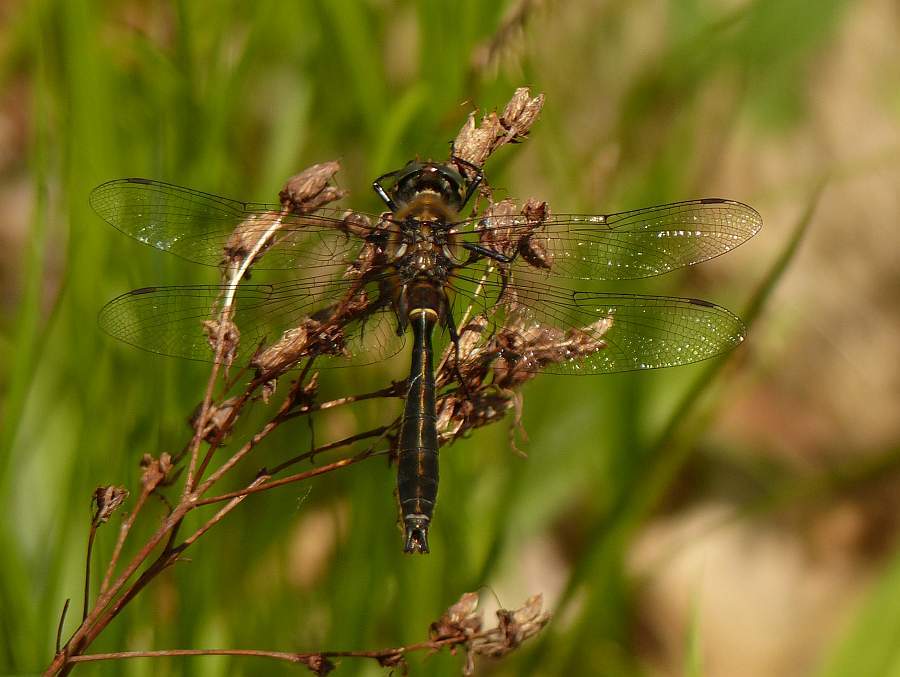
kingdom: Animalia
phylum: Arthropoda
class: Insecta
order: Odonata
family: Corduliidae
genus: Dorocordulia
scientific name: Dorocordulia libera
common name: Racket-tailed emerald
